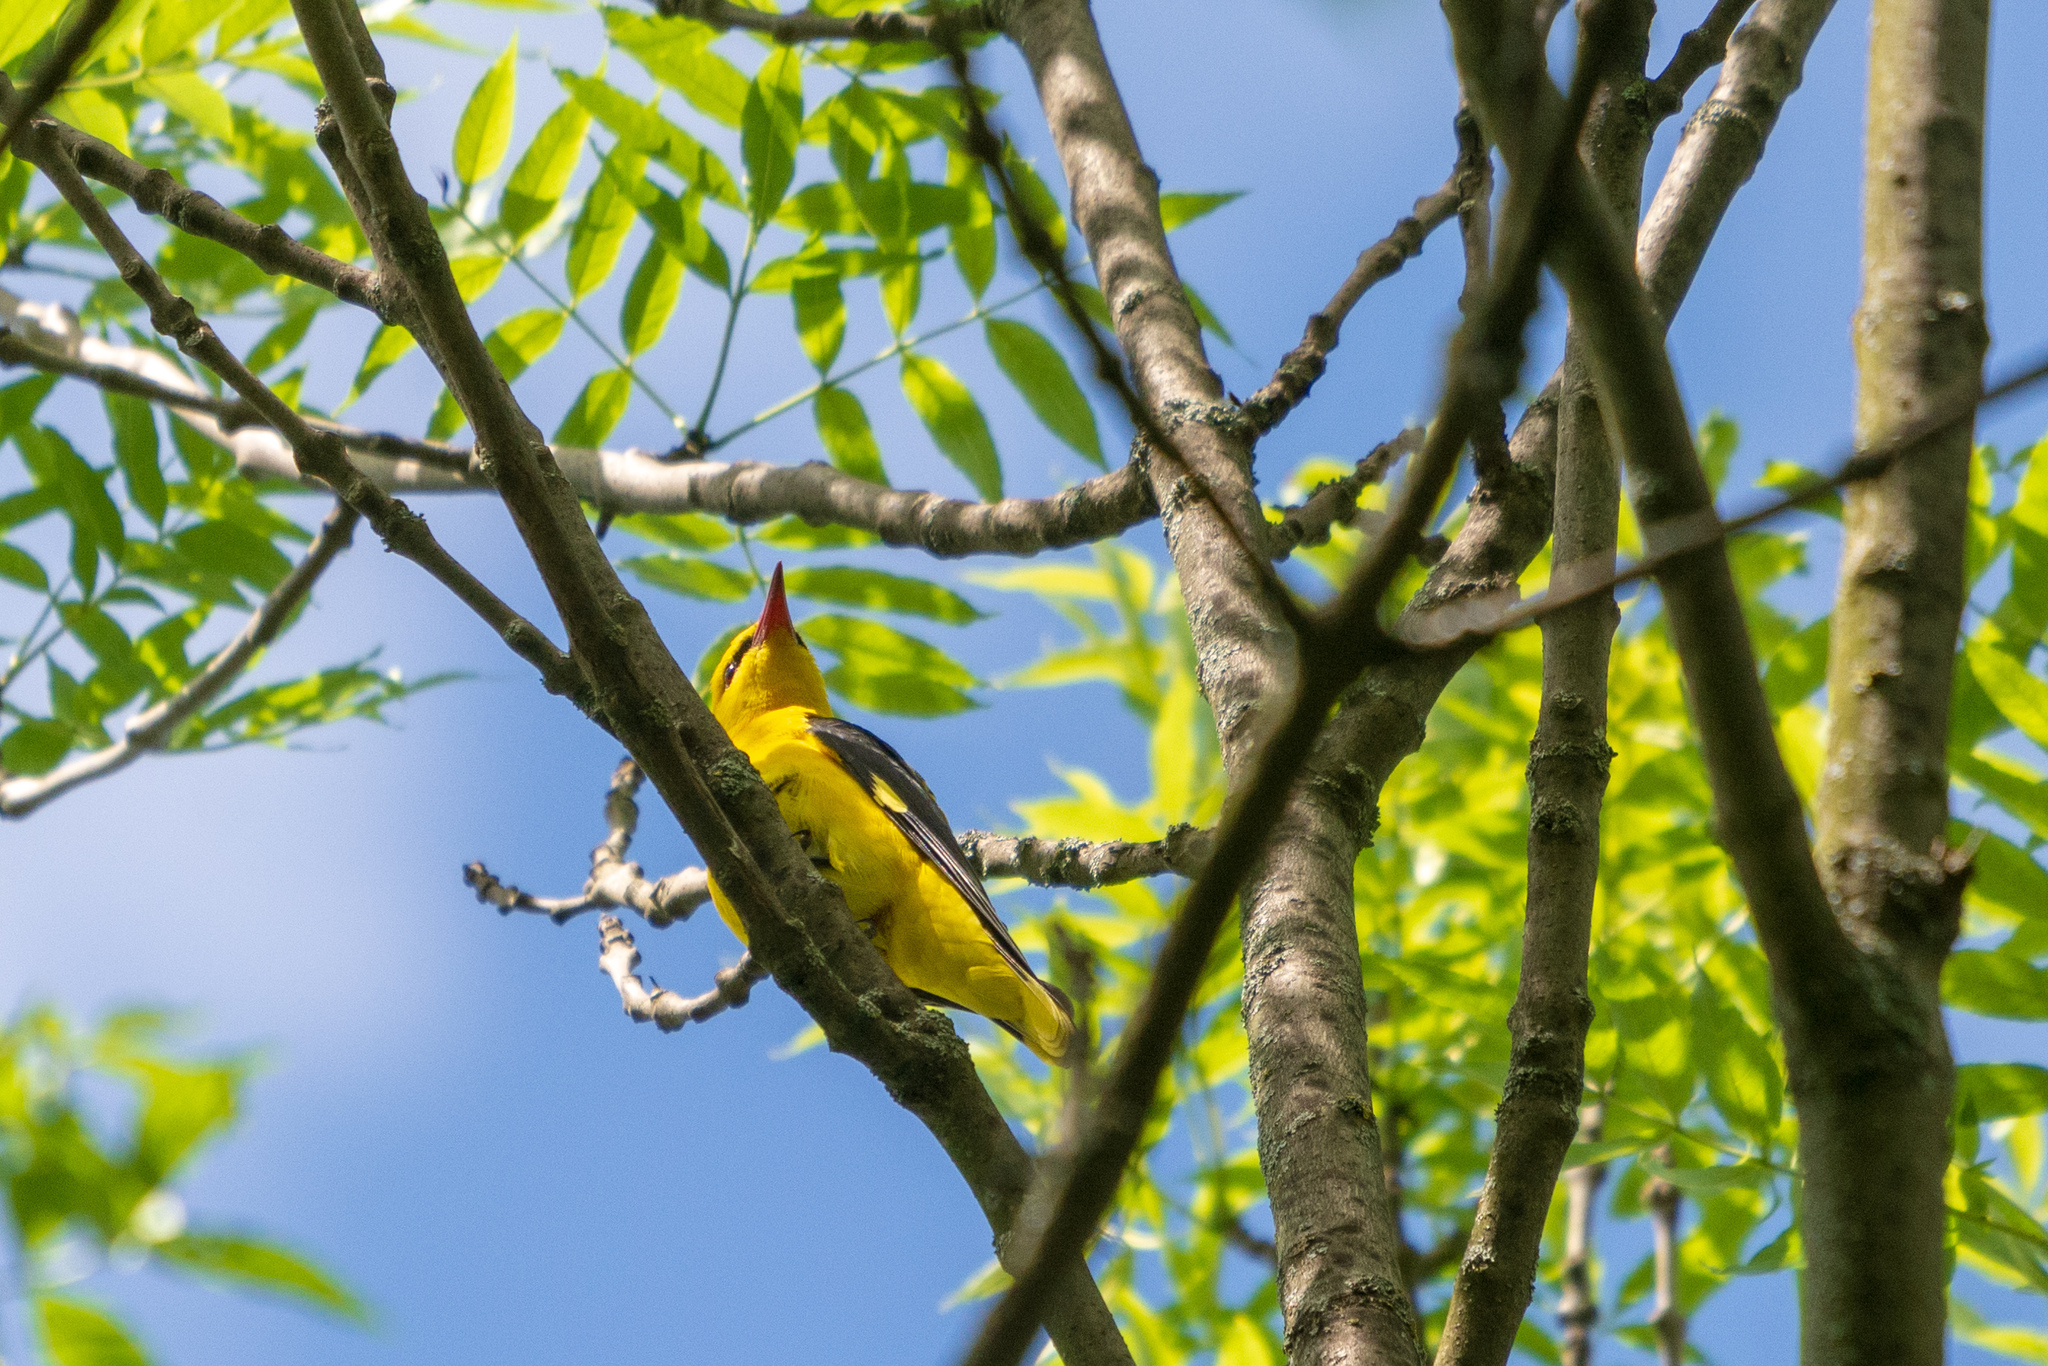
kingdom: Animalia
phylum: Chordata
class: Aves
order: Passeriformes
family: Oriolidae
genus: Oriolus
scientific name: Oriolus oriolus
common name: Eurasian golden oriole
